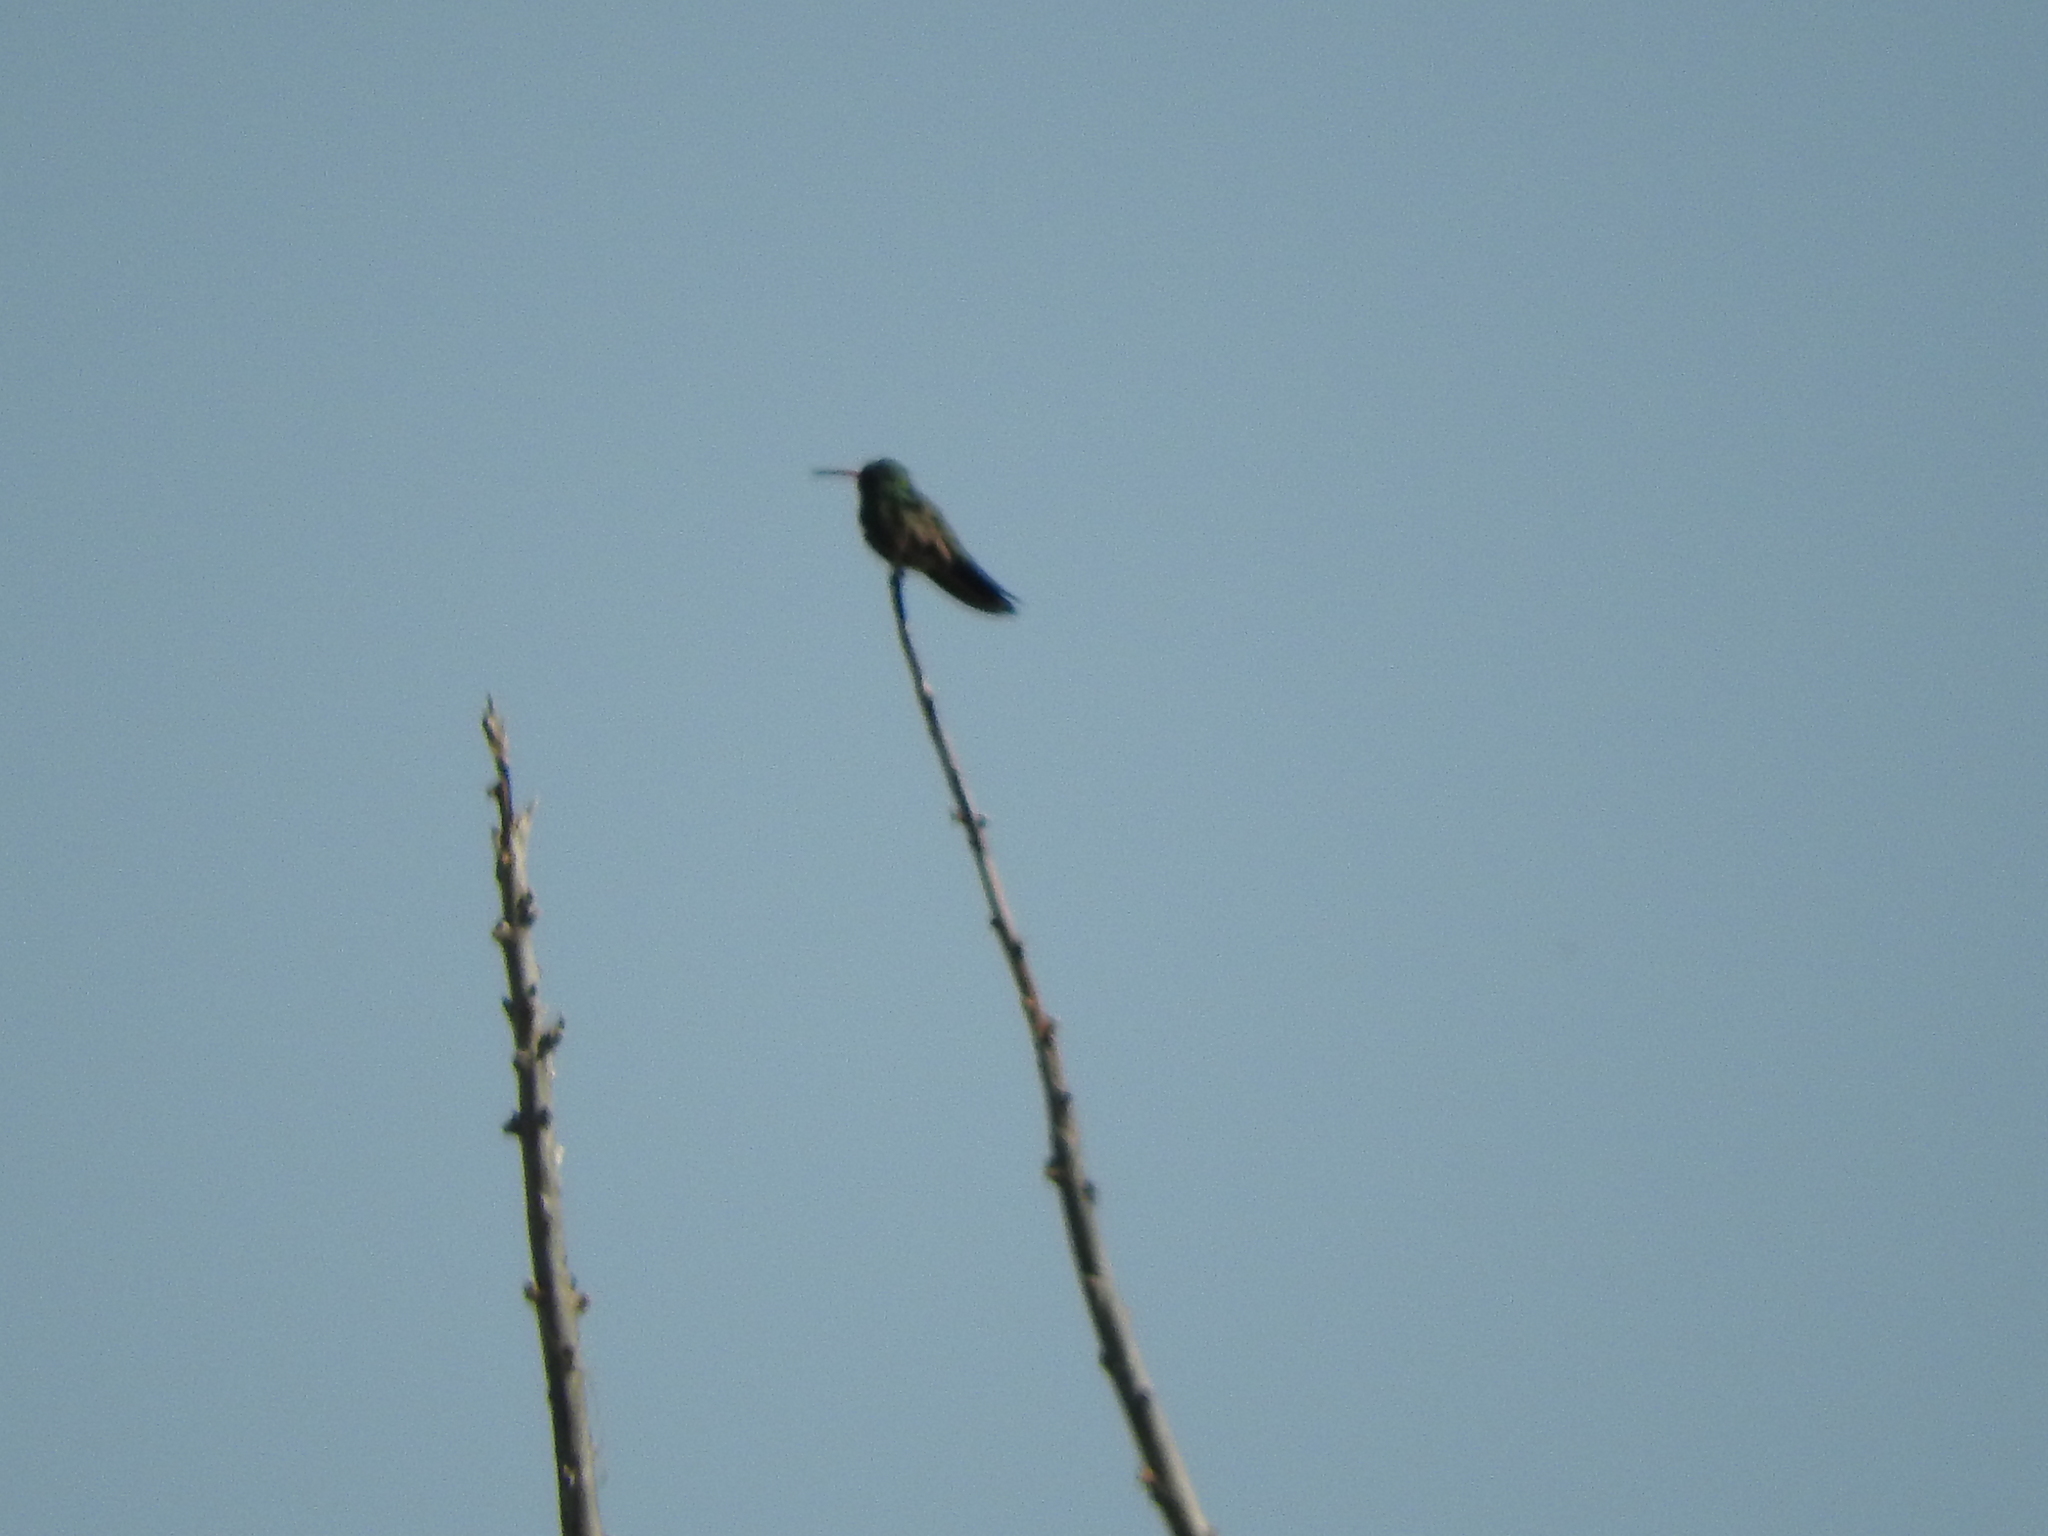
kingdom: Animalia
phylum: Chordata
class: Aves
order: Apodiformes
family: Trochilidae
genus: Cynanthus
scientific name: Cynanthus latirostris
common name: Broad-billed hummingbird
